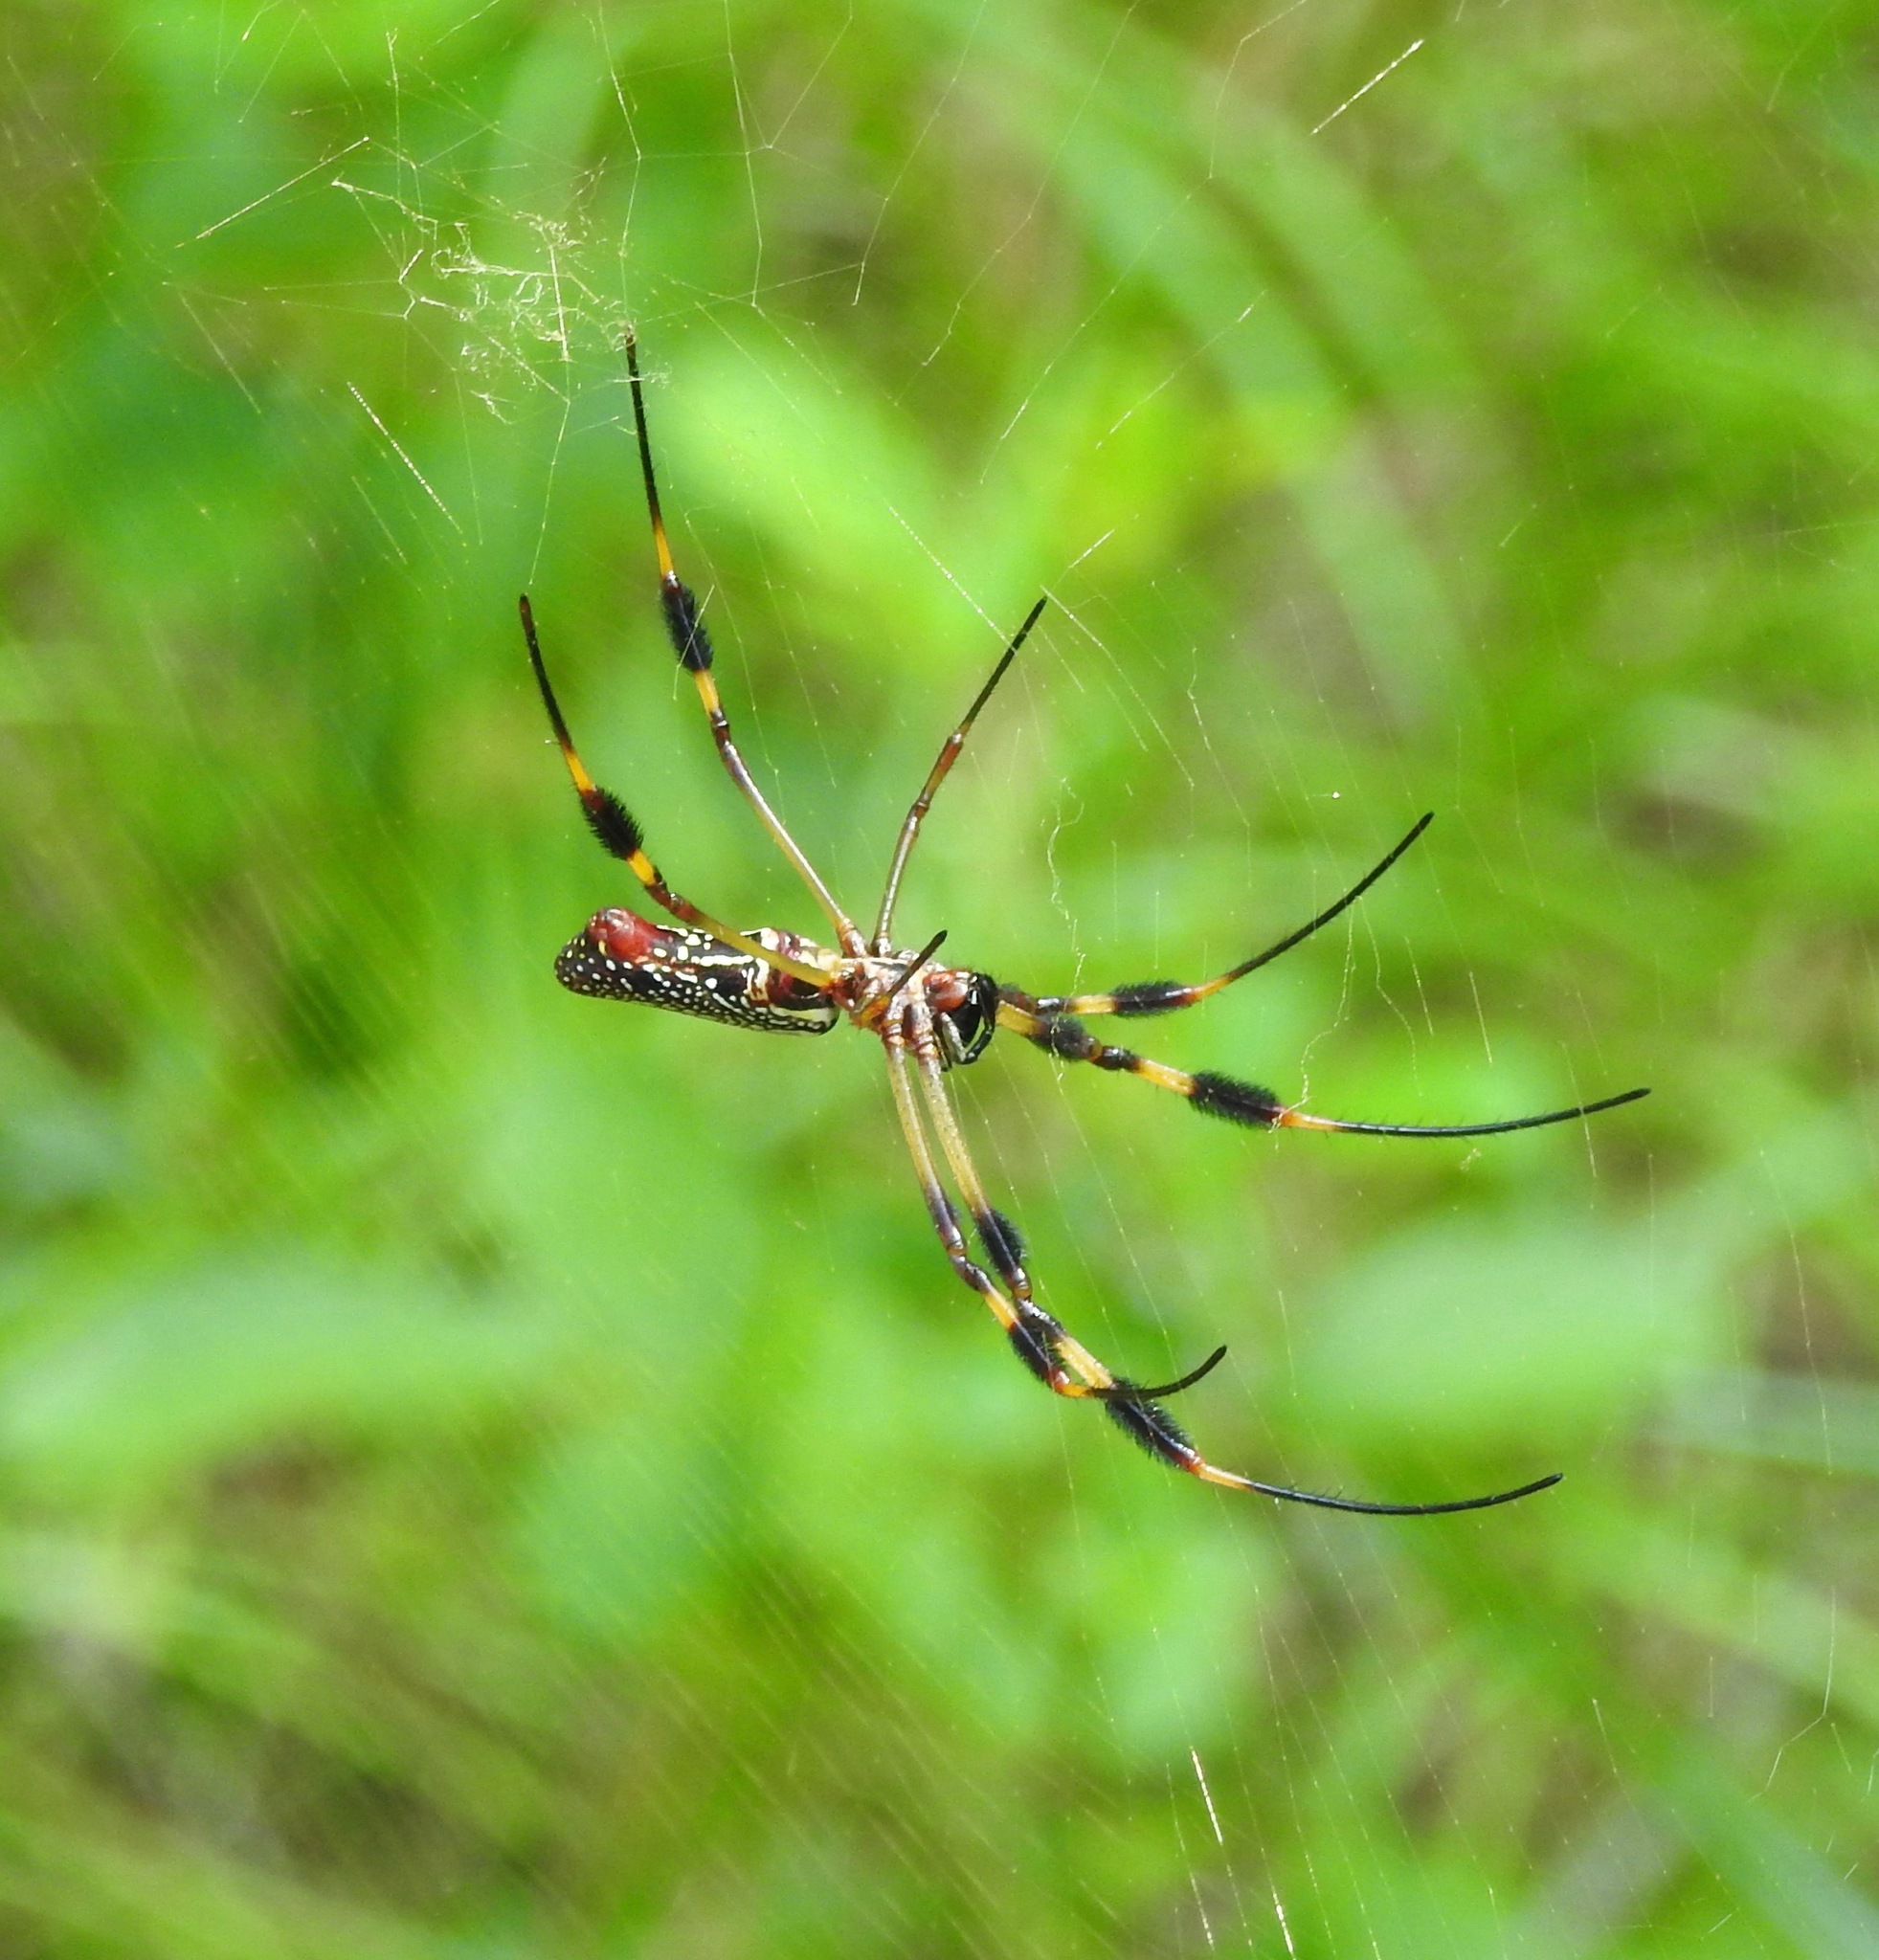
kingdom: Animalia
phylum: Arthropoda
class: Arachnida
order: Araneae
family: Araneidae
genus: Trichonephila
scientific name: Trichonephila clavipes
